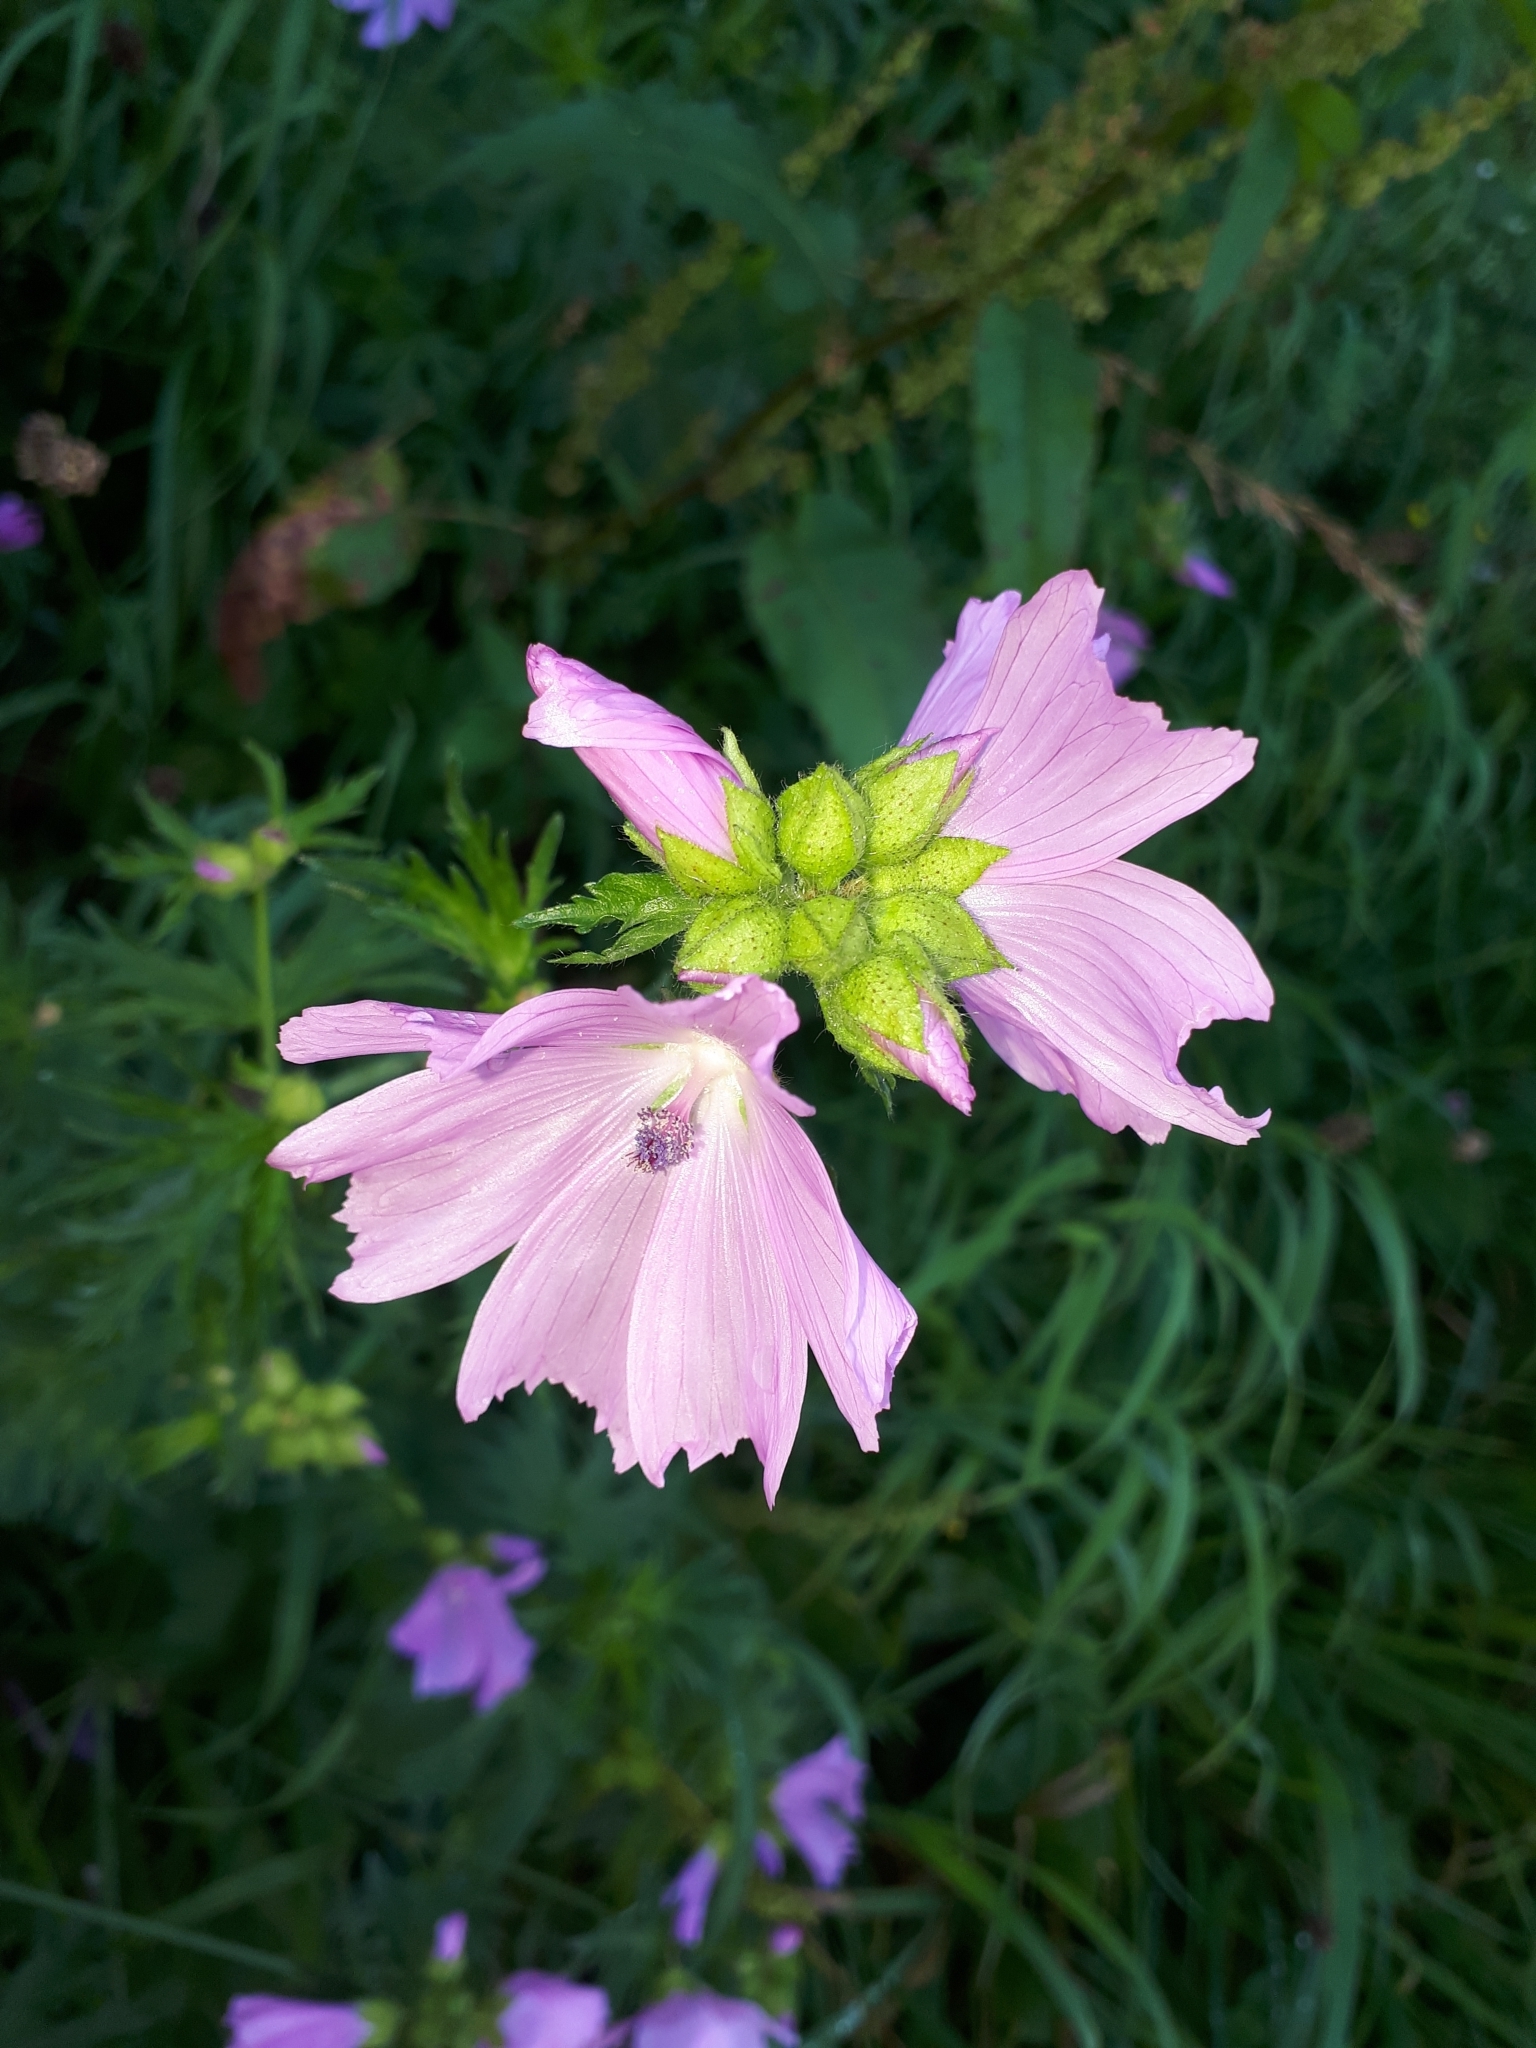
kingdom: Plantae
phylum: Tracheophyta
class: Magnoliopsida
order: Malvales
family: Malvaceae
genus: Malva
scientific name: Malva moschata
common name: Musk mallow
